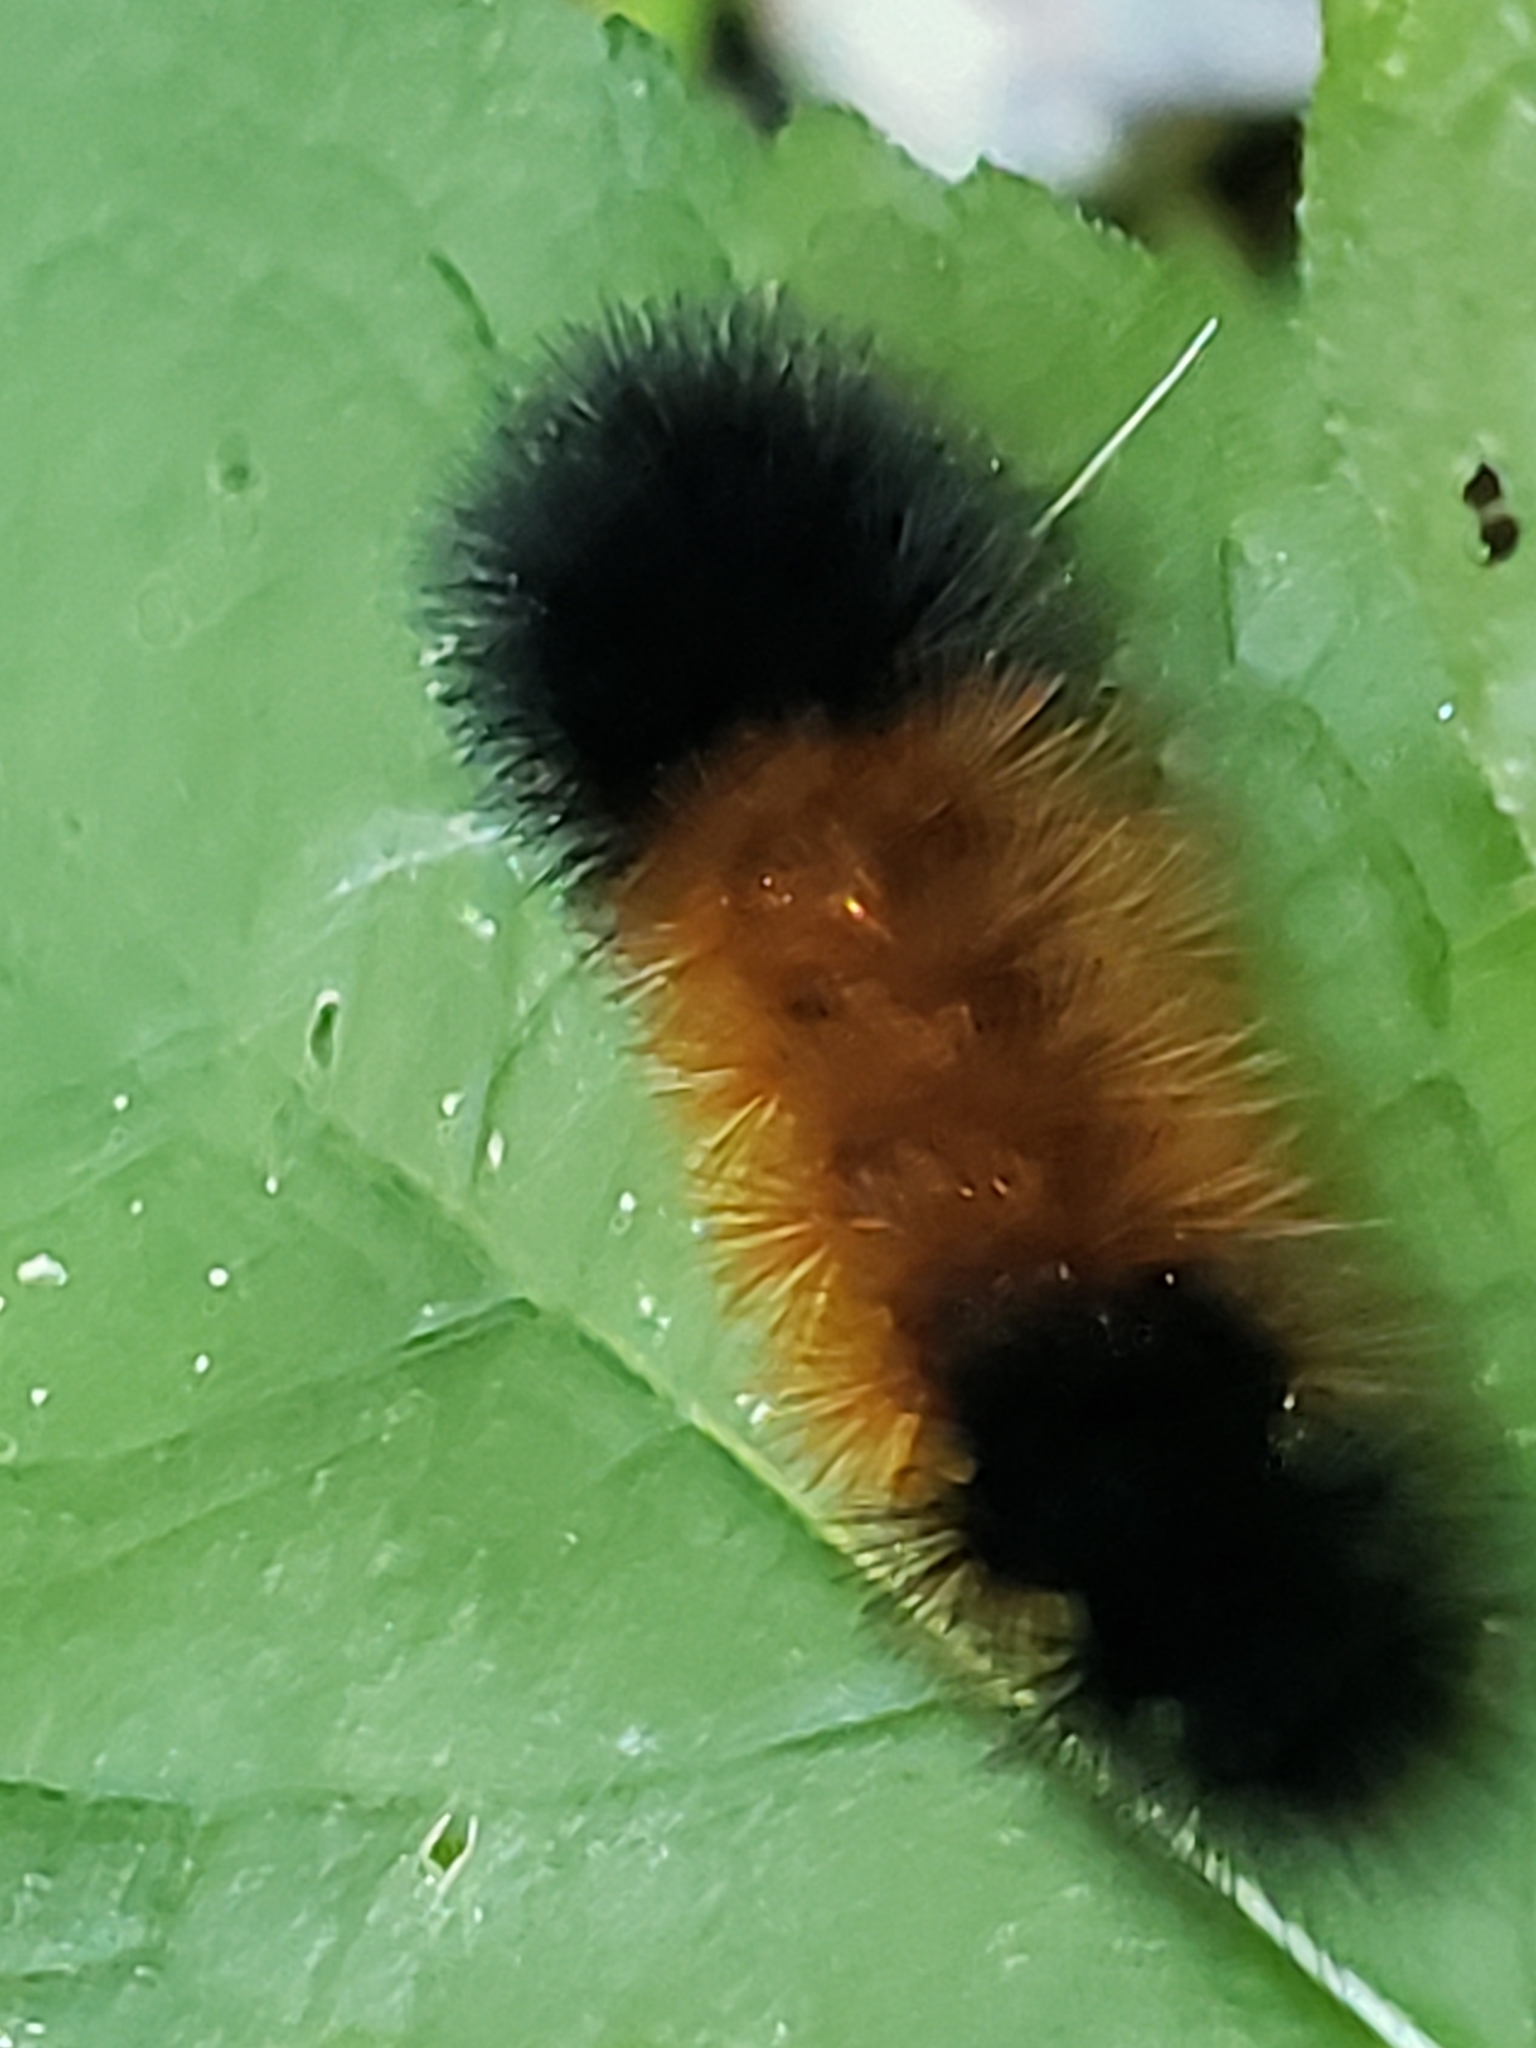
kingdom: Animalia
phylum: Arthropoda
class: Insecta
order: Lepidoptera
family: Erebidae
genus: Pyrrharctia
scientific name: Pyrrharctia isabella
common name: Isabella tiger moth
